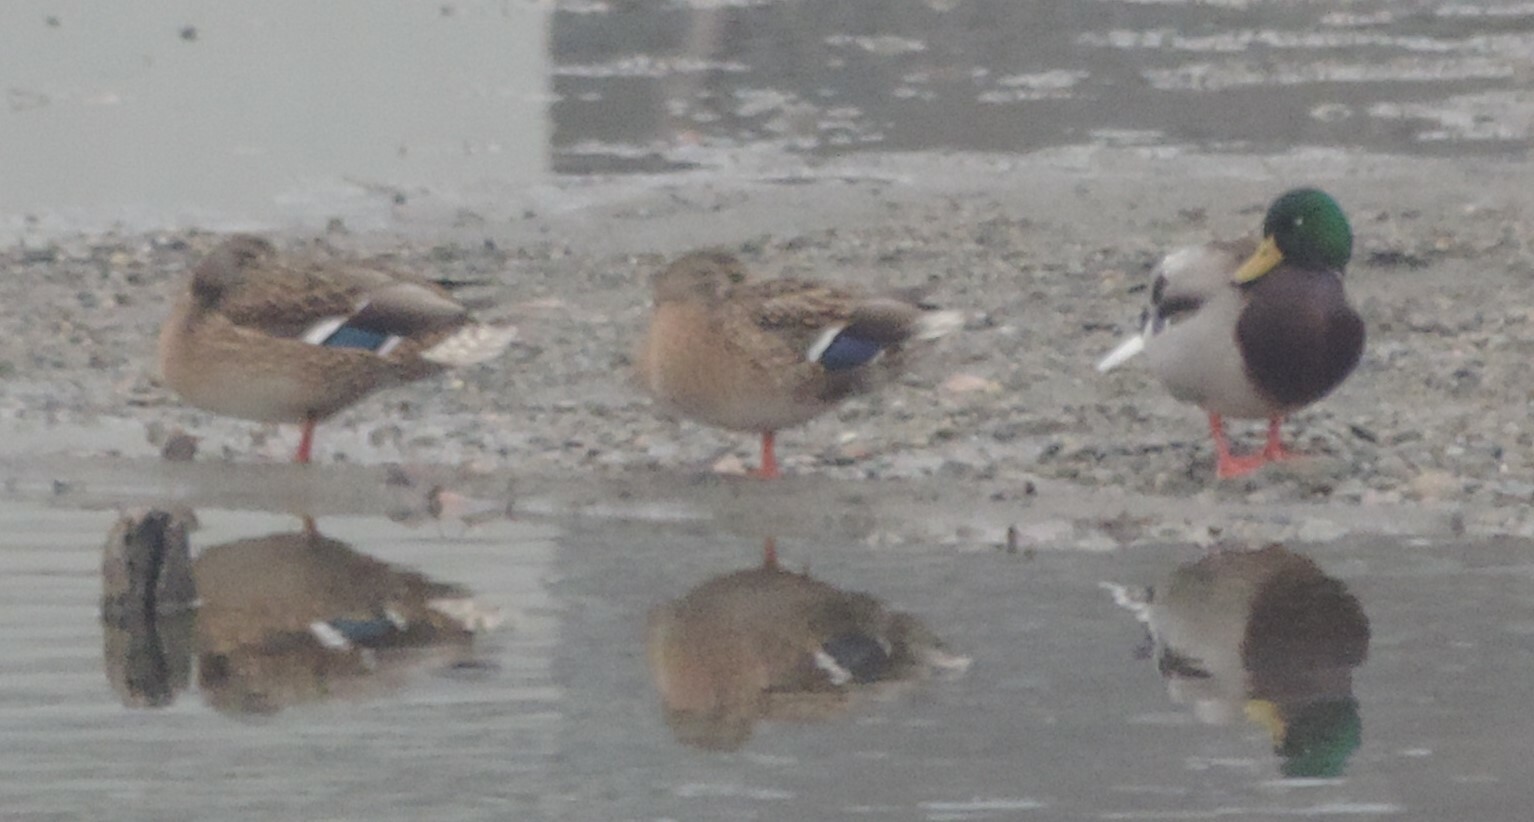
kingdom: Animalia
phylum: Chordata
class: Aves
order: Anseriformes
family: Anatidae
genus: Anas
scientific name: Anas platyrhynchos
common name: Mallard
